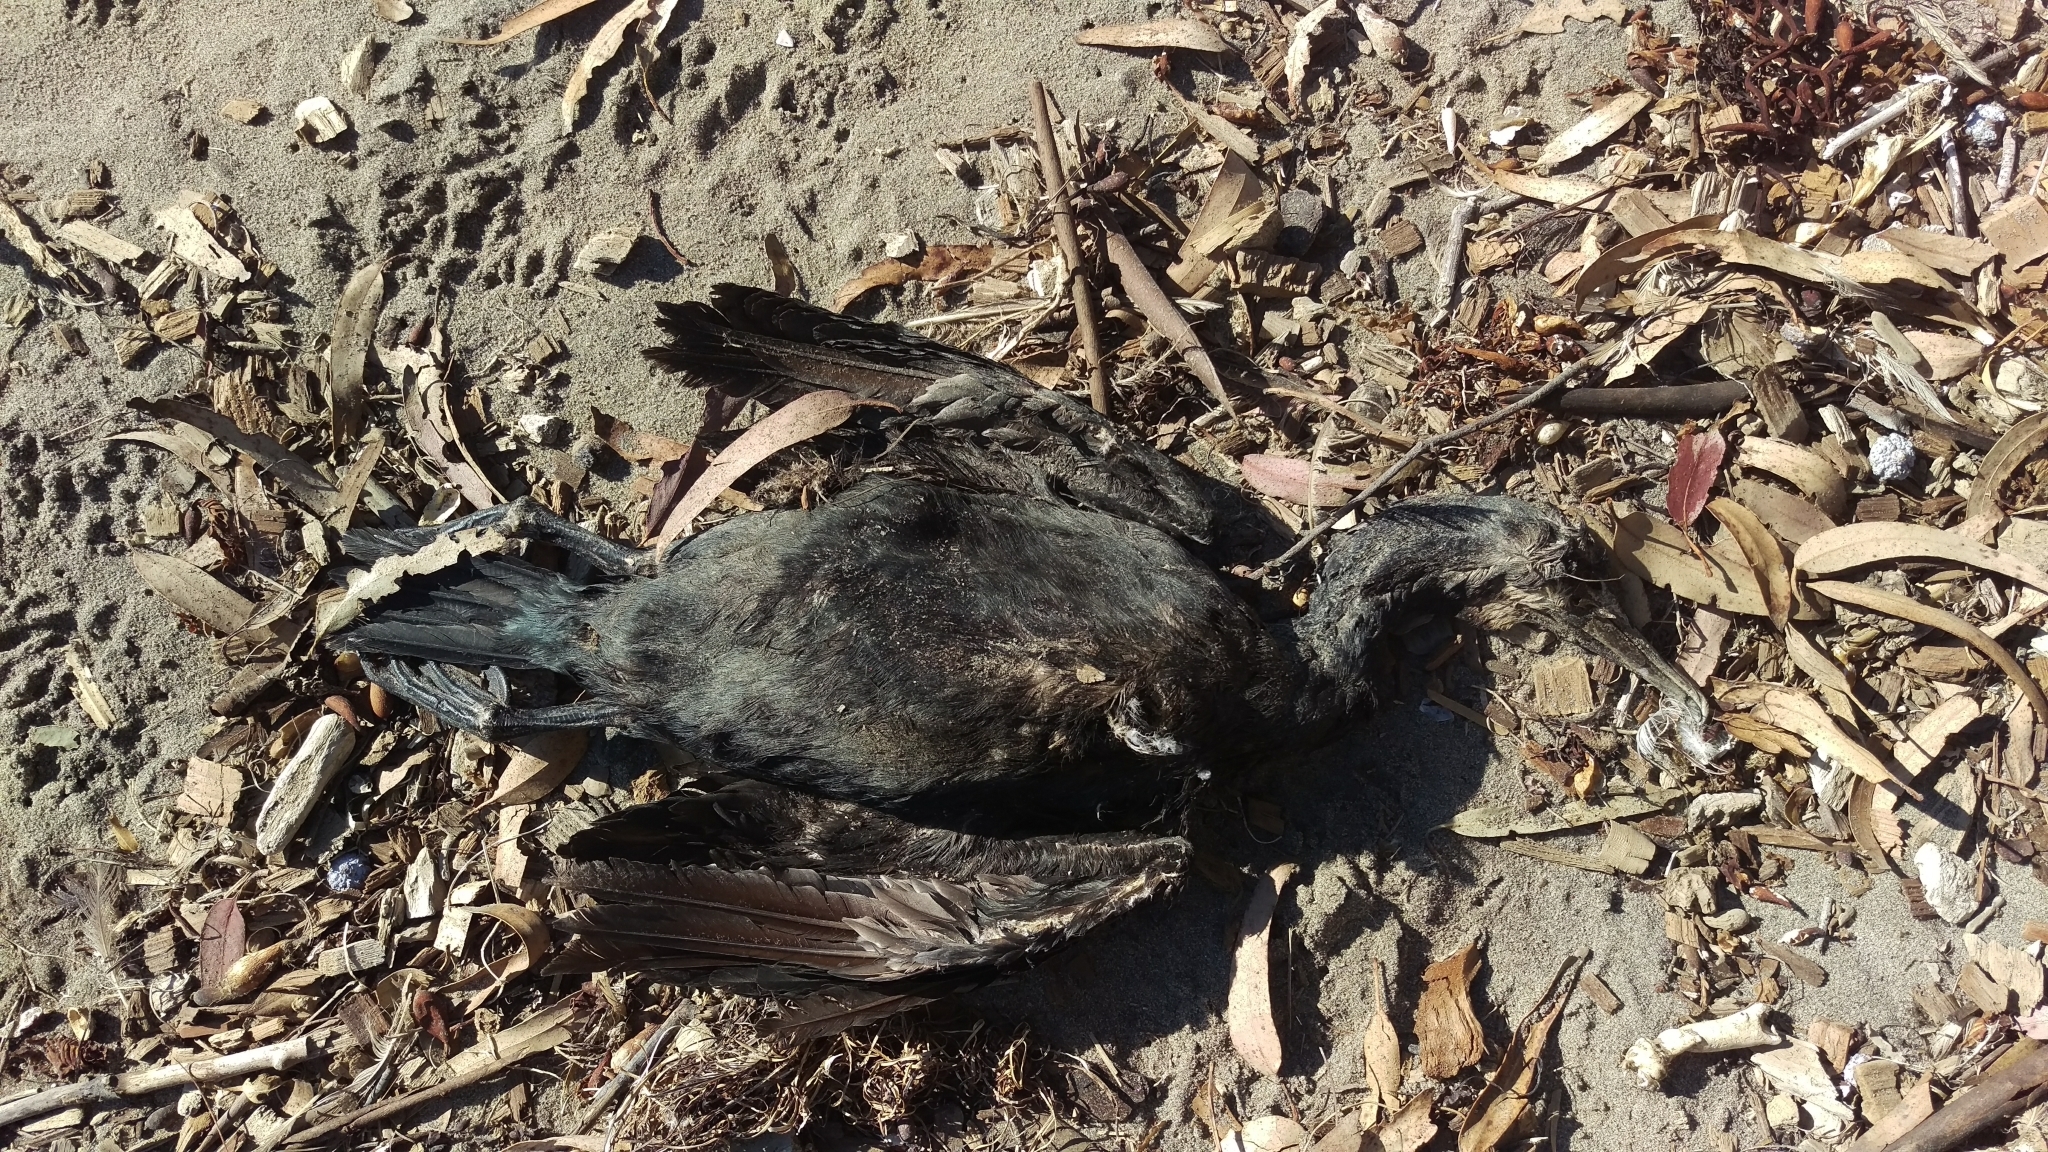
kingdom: Animalia
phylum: Chordata
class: Aves
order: Suliformes
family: Phalacrocoracidae
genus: Urile
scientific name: Urile penicillatus
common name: Brandt's cormorant
